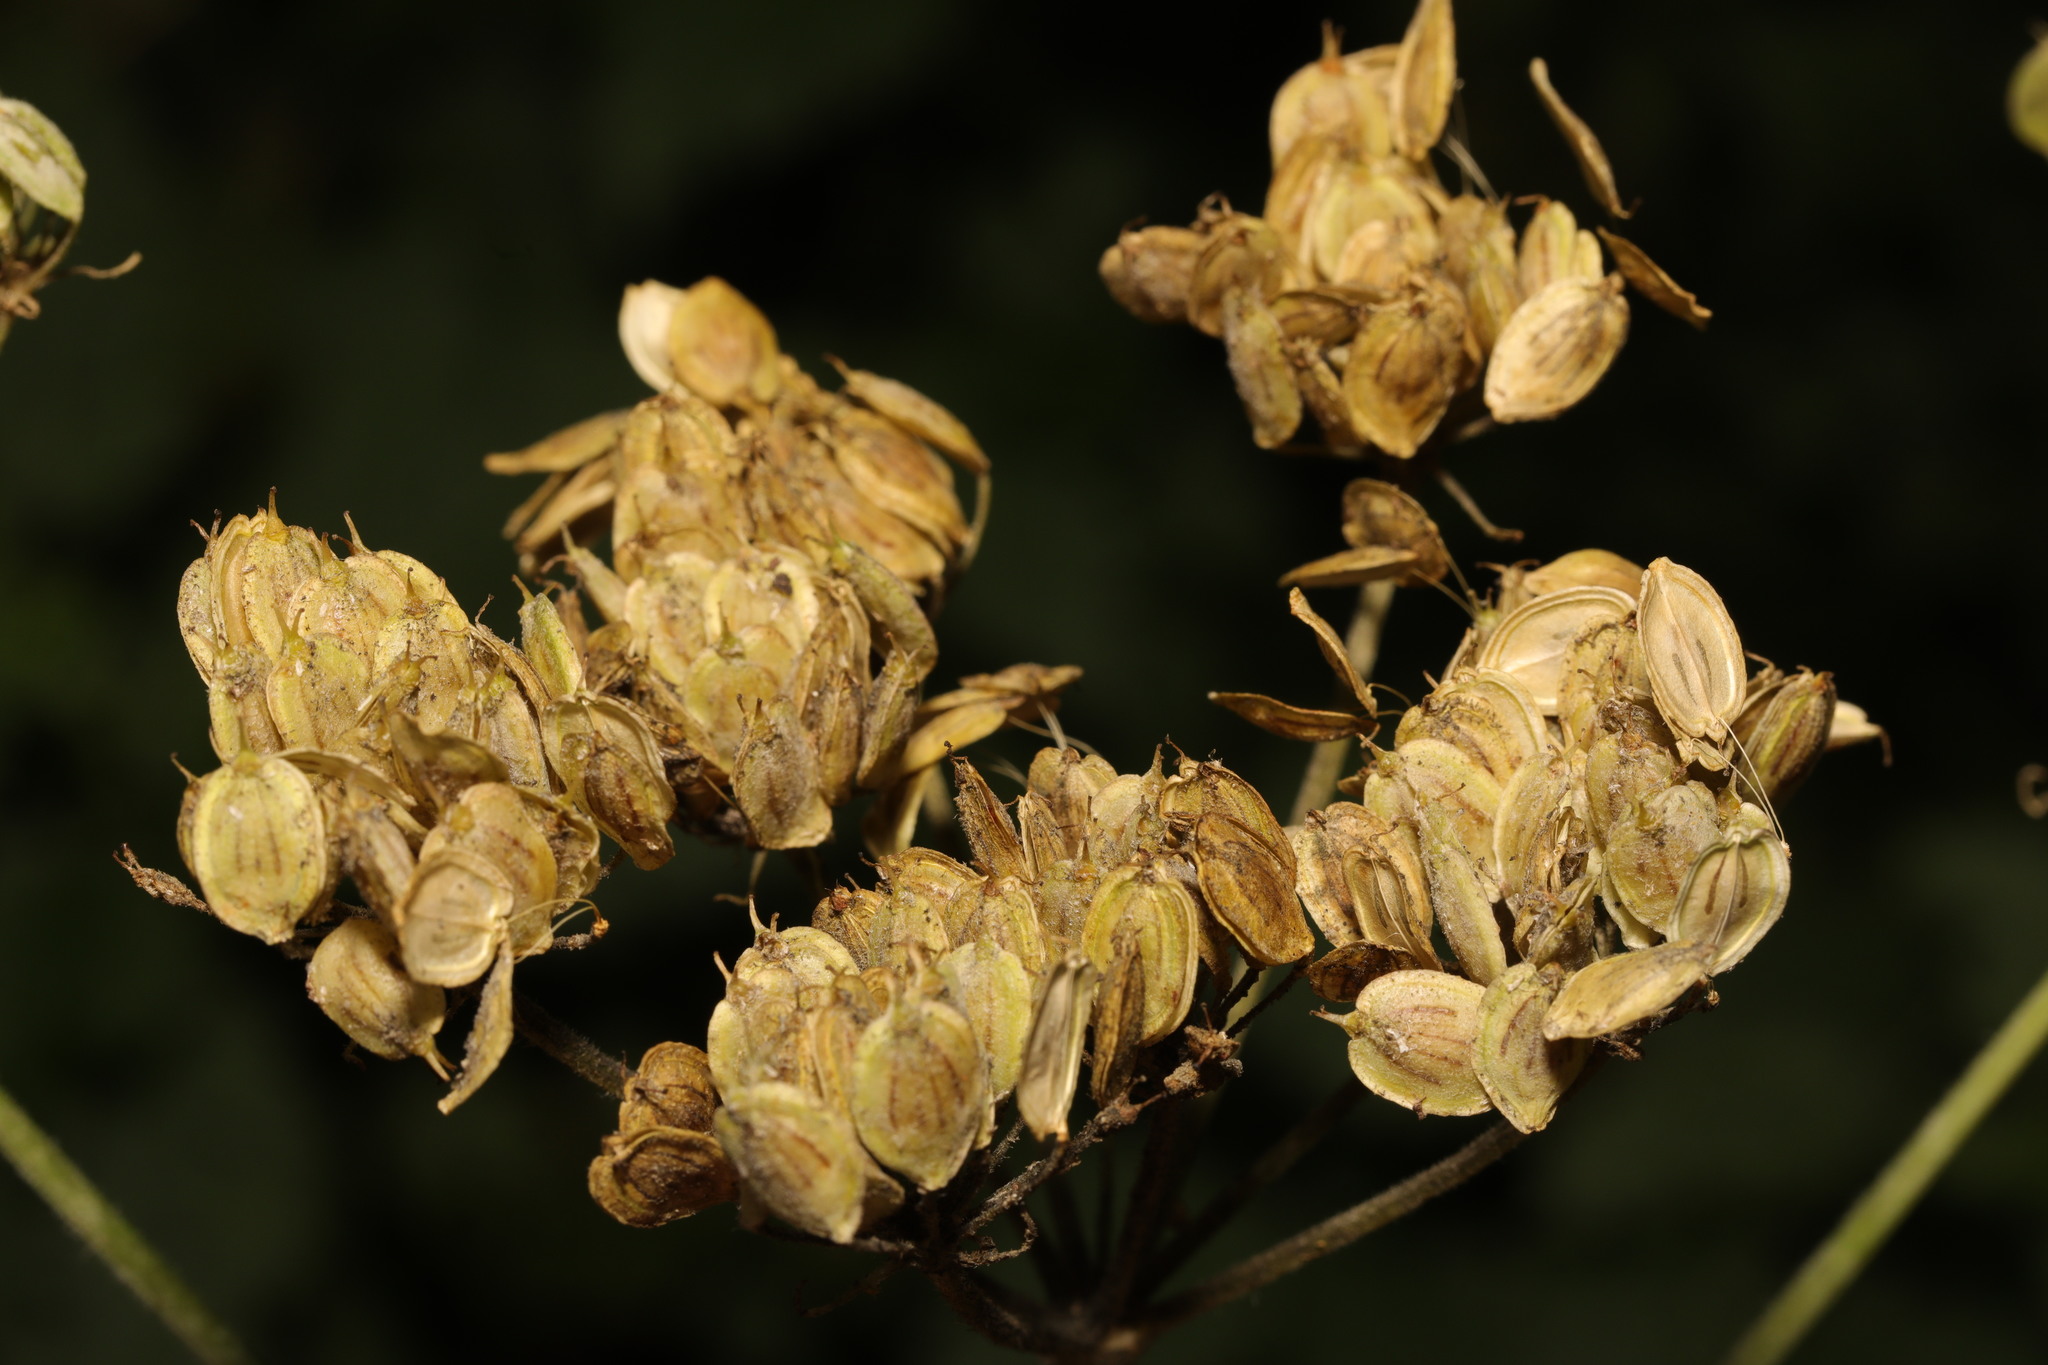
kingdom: Plantae
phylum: Tracheophyta
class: Magnoliopsida
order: Apiales
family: Apiaceae
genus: Heracleum
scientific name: Heracleum sphondylium
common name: Hogweed
